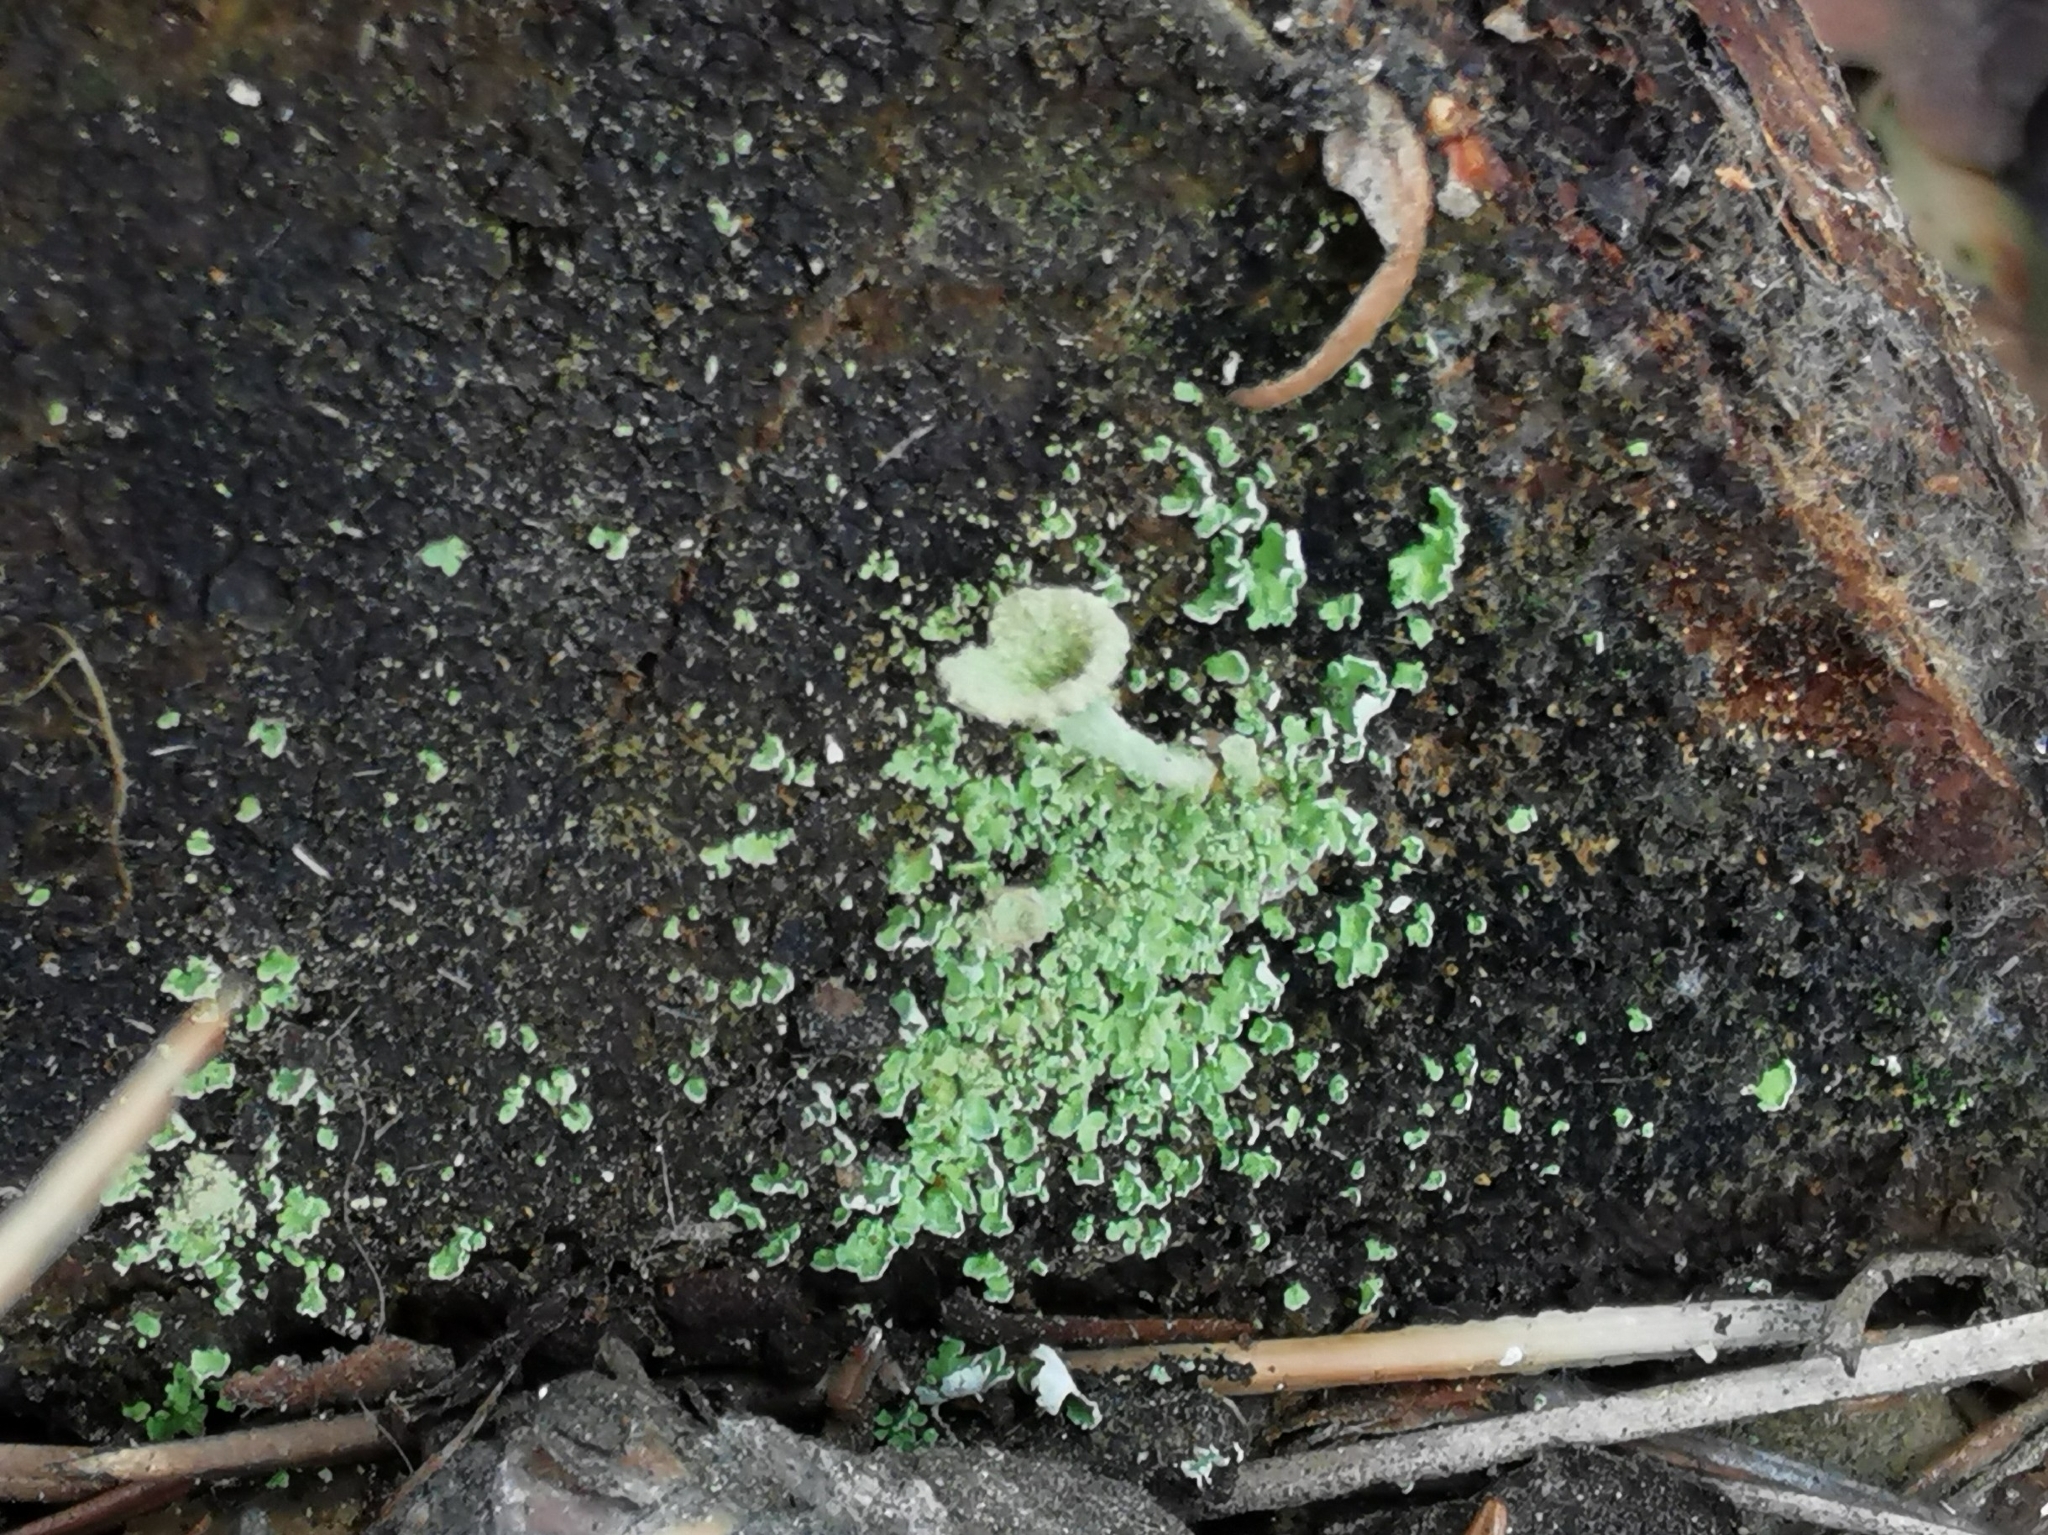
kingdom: Fungi
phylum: Ascomycota
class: Lecanoromycetes
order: Lecanorales
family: Cladoniaceae
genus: Cladonia
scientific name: Cladonia chlorophaea
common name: Mealy pixie cup
